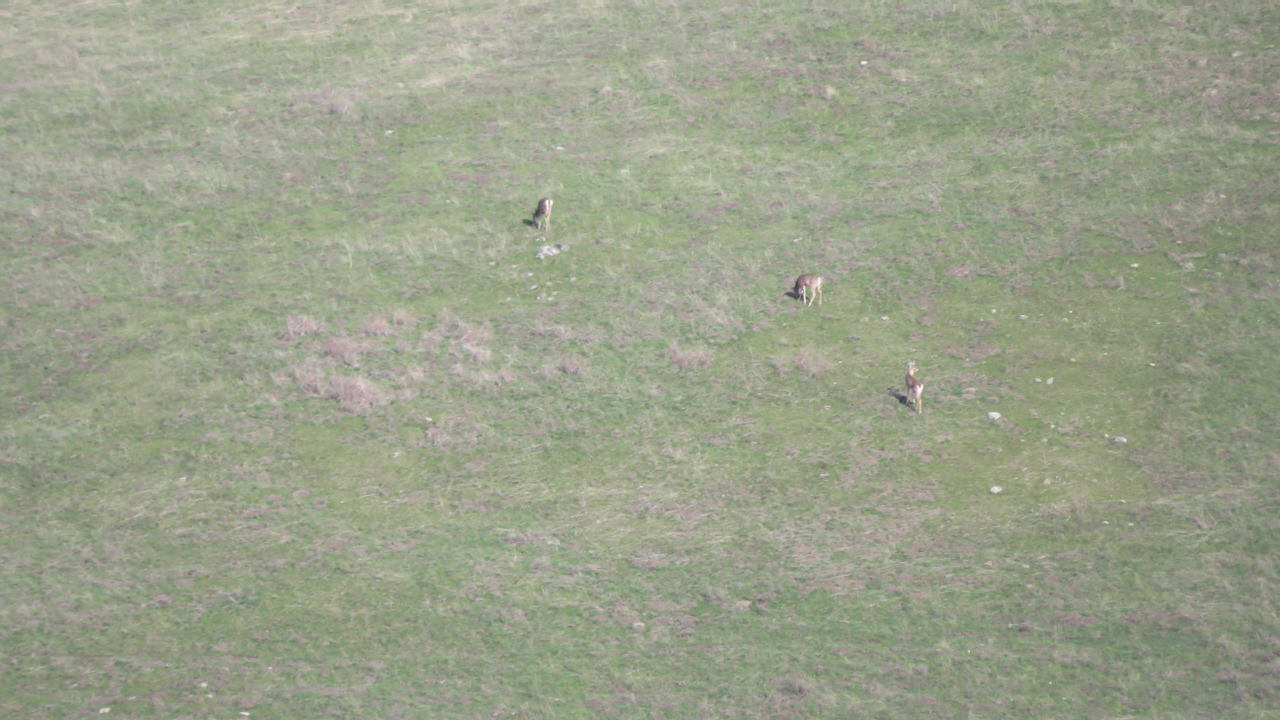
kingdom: Animalia
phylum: Chordata
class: Mammalia
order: Artiodactyla
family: Cervidae
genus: Odocoileus
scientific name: Odocoileus virginianus
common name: White-tailed deer
